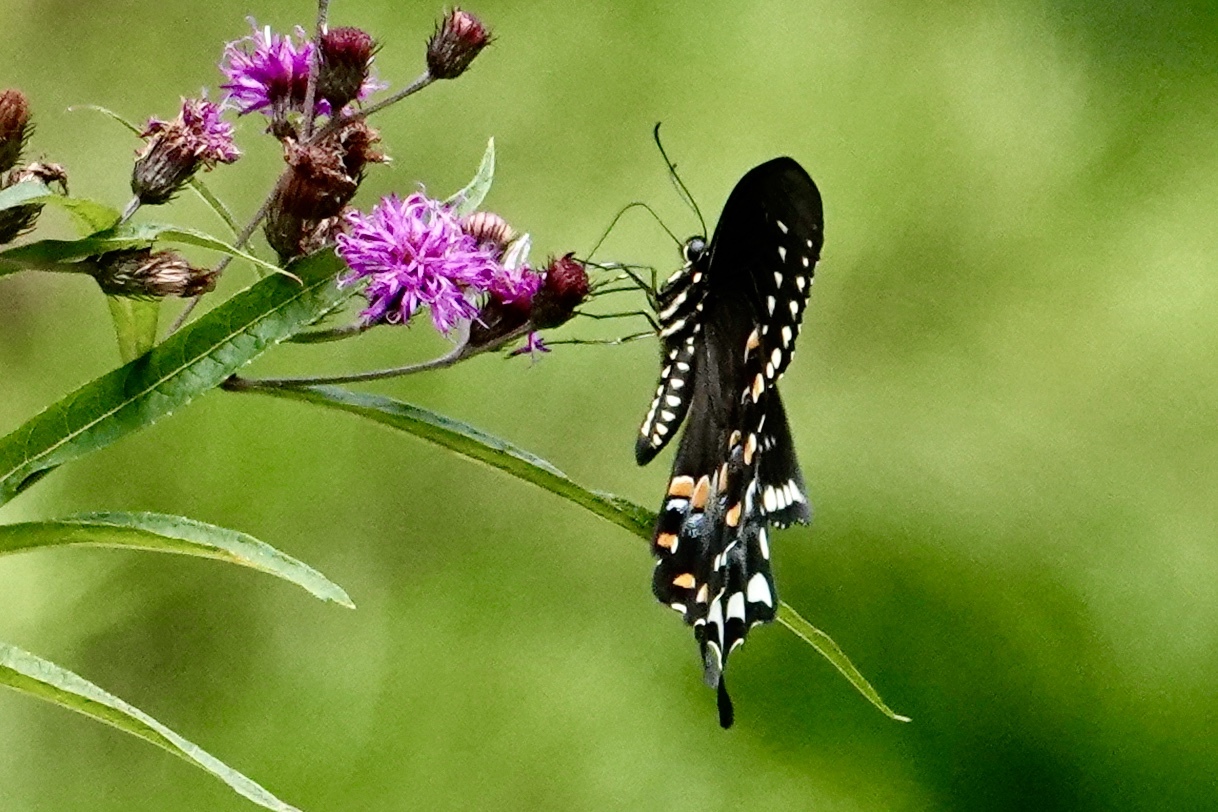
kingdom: Animalia
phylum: Arthropoda
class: Insecta
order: Lepidoptera
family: Papilionidae
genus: Papilio
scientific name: Papilio troilus
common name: Spicebush swallowtail
